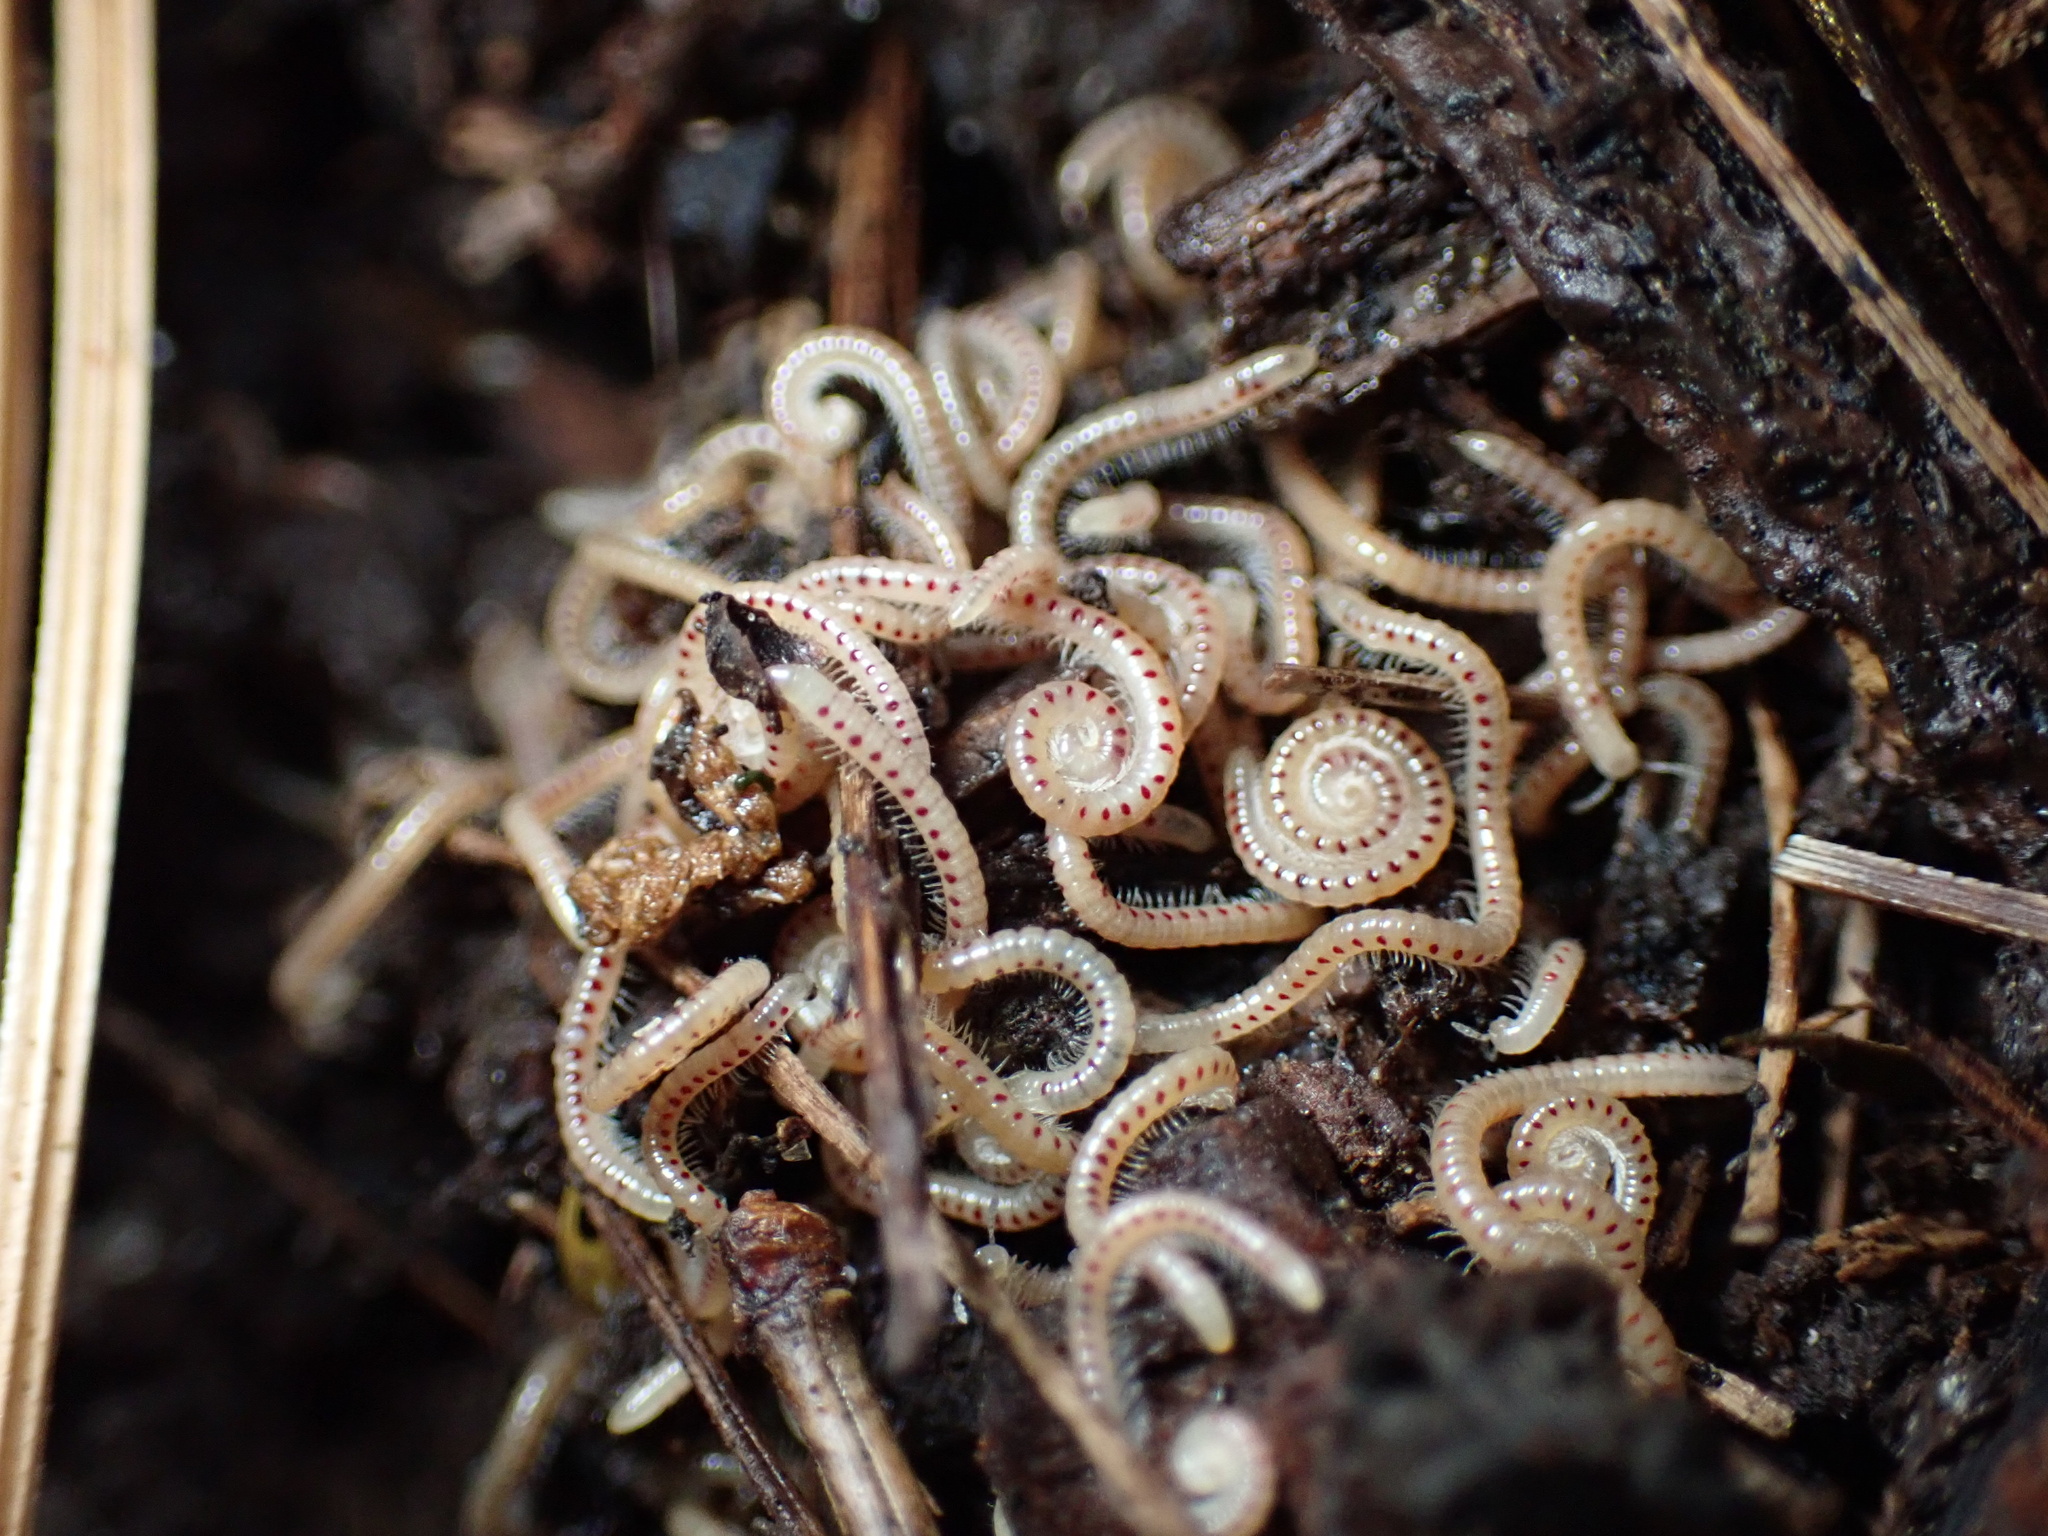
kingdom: Animalia
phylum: Arthropoda
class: Diplopoda
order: Julida
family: Blaniulidae
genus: Blaniulus
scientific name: Blaniulus guttulatus
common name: Spotted snake millipede
